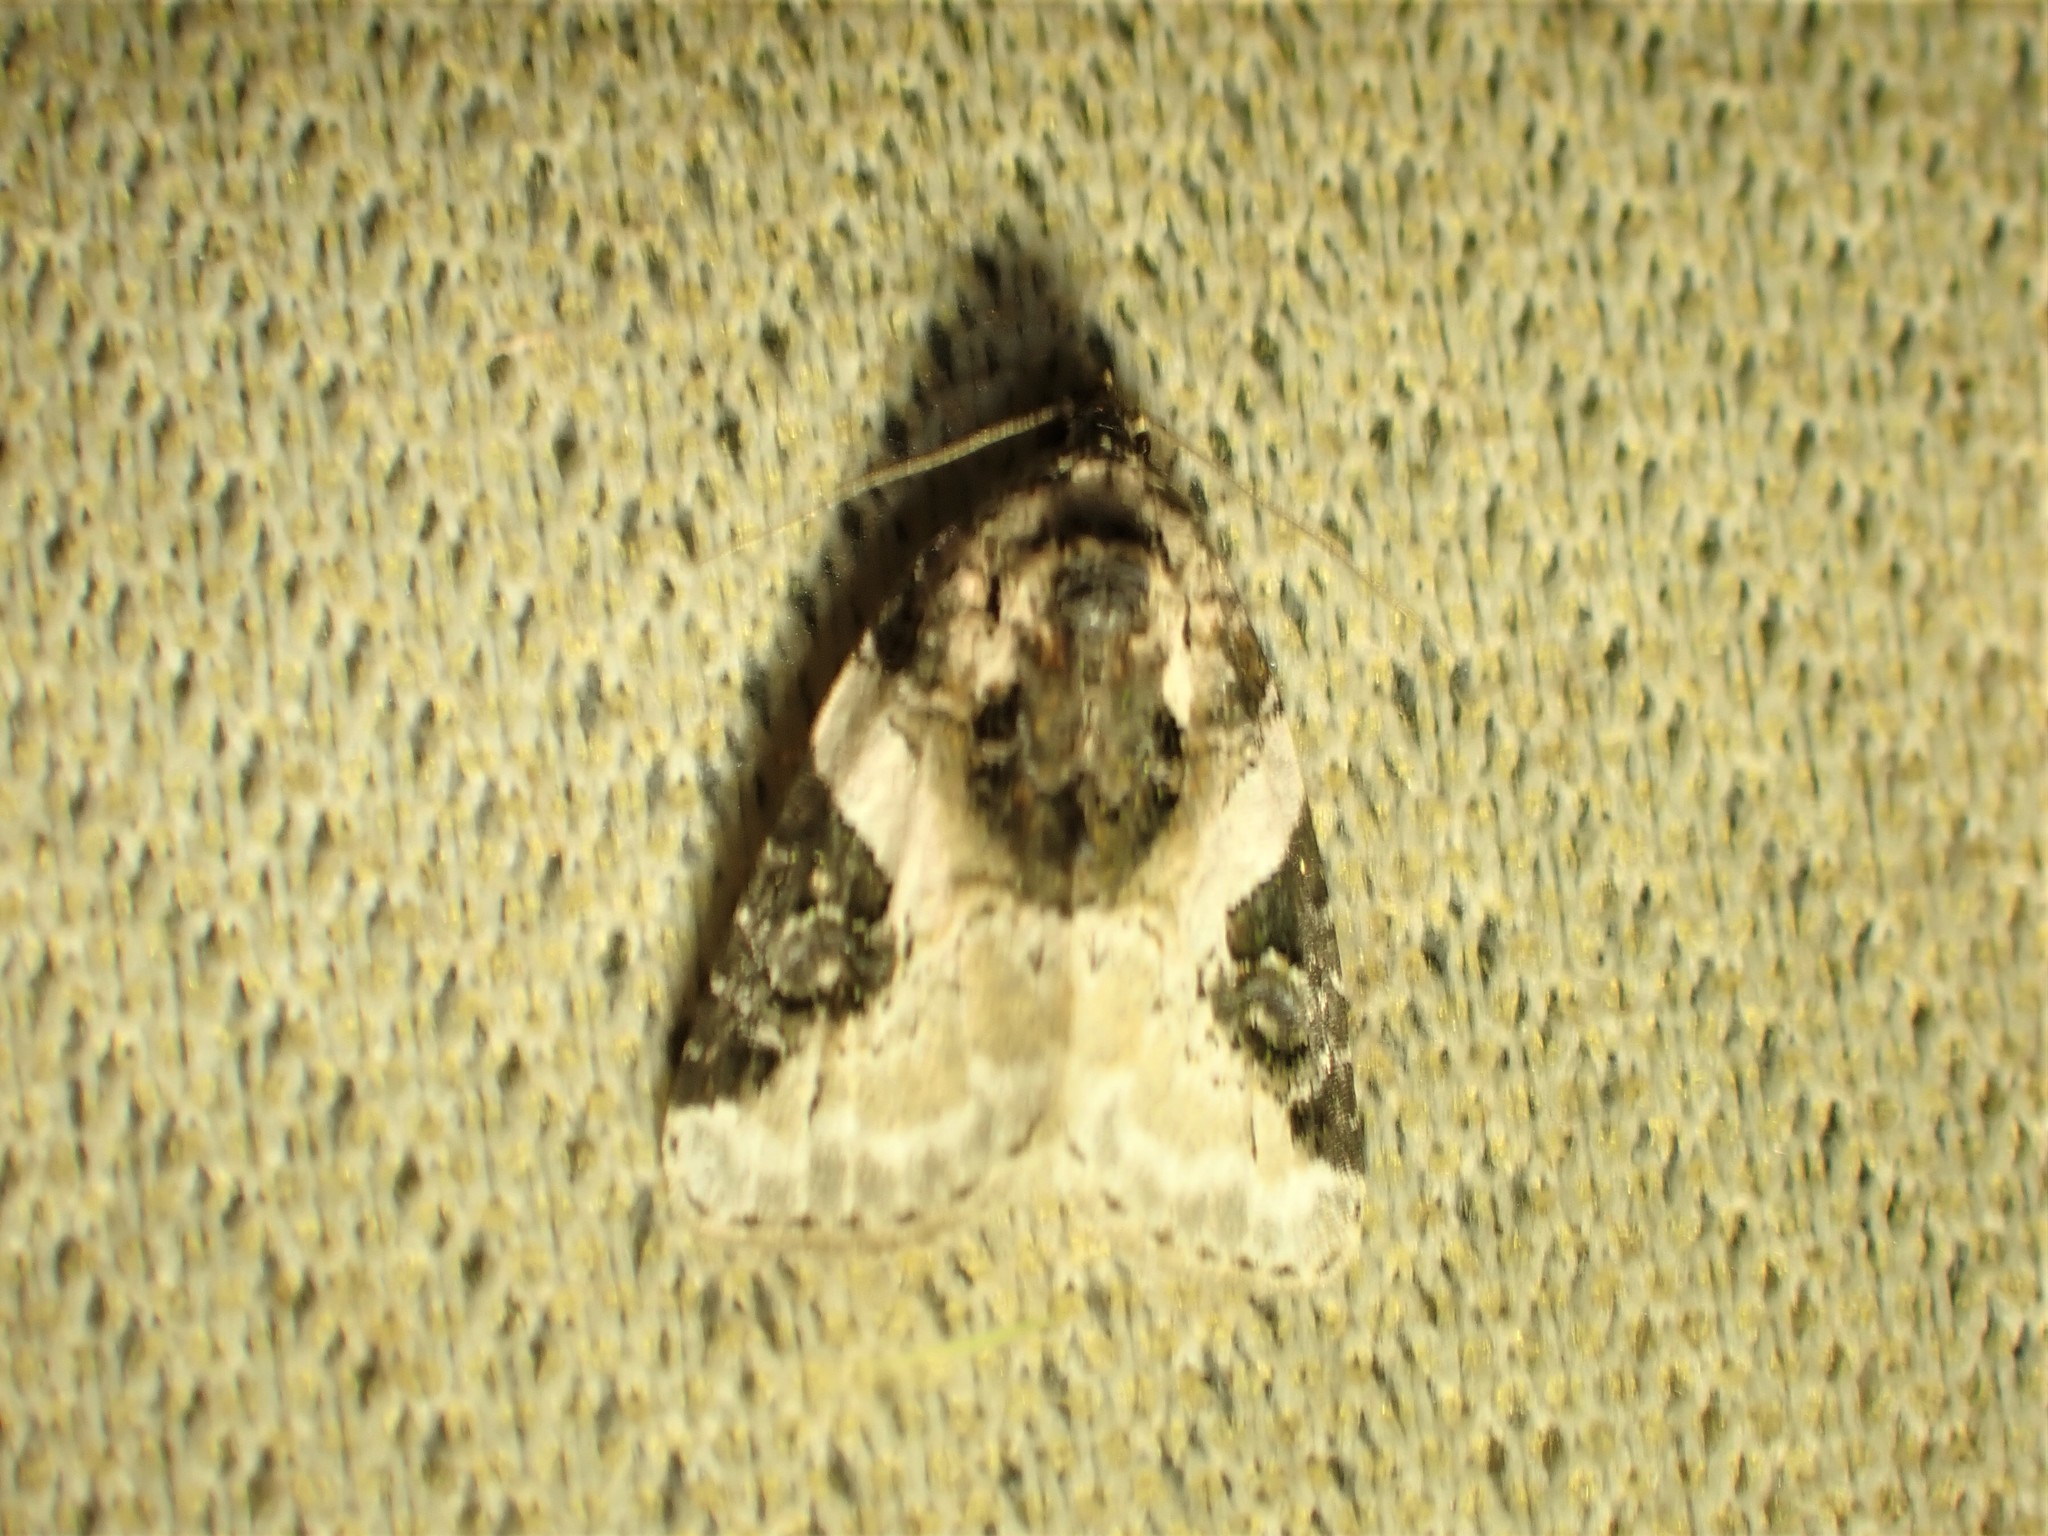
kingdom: Animalia
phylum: Arthropoda
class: Insecta
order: Lepidoptera
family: Noctuidae
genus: Pseudeustrotia
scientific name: Pseudeustrotia carneola
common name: Pink-barred lithacodia moth
